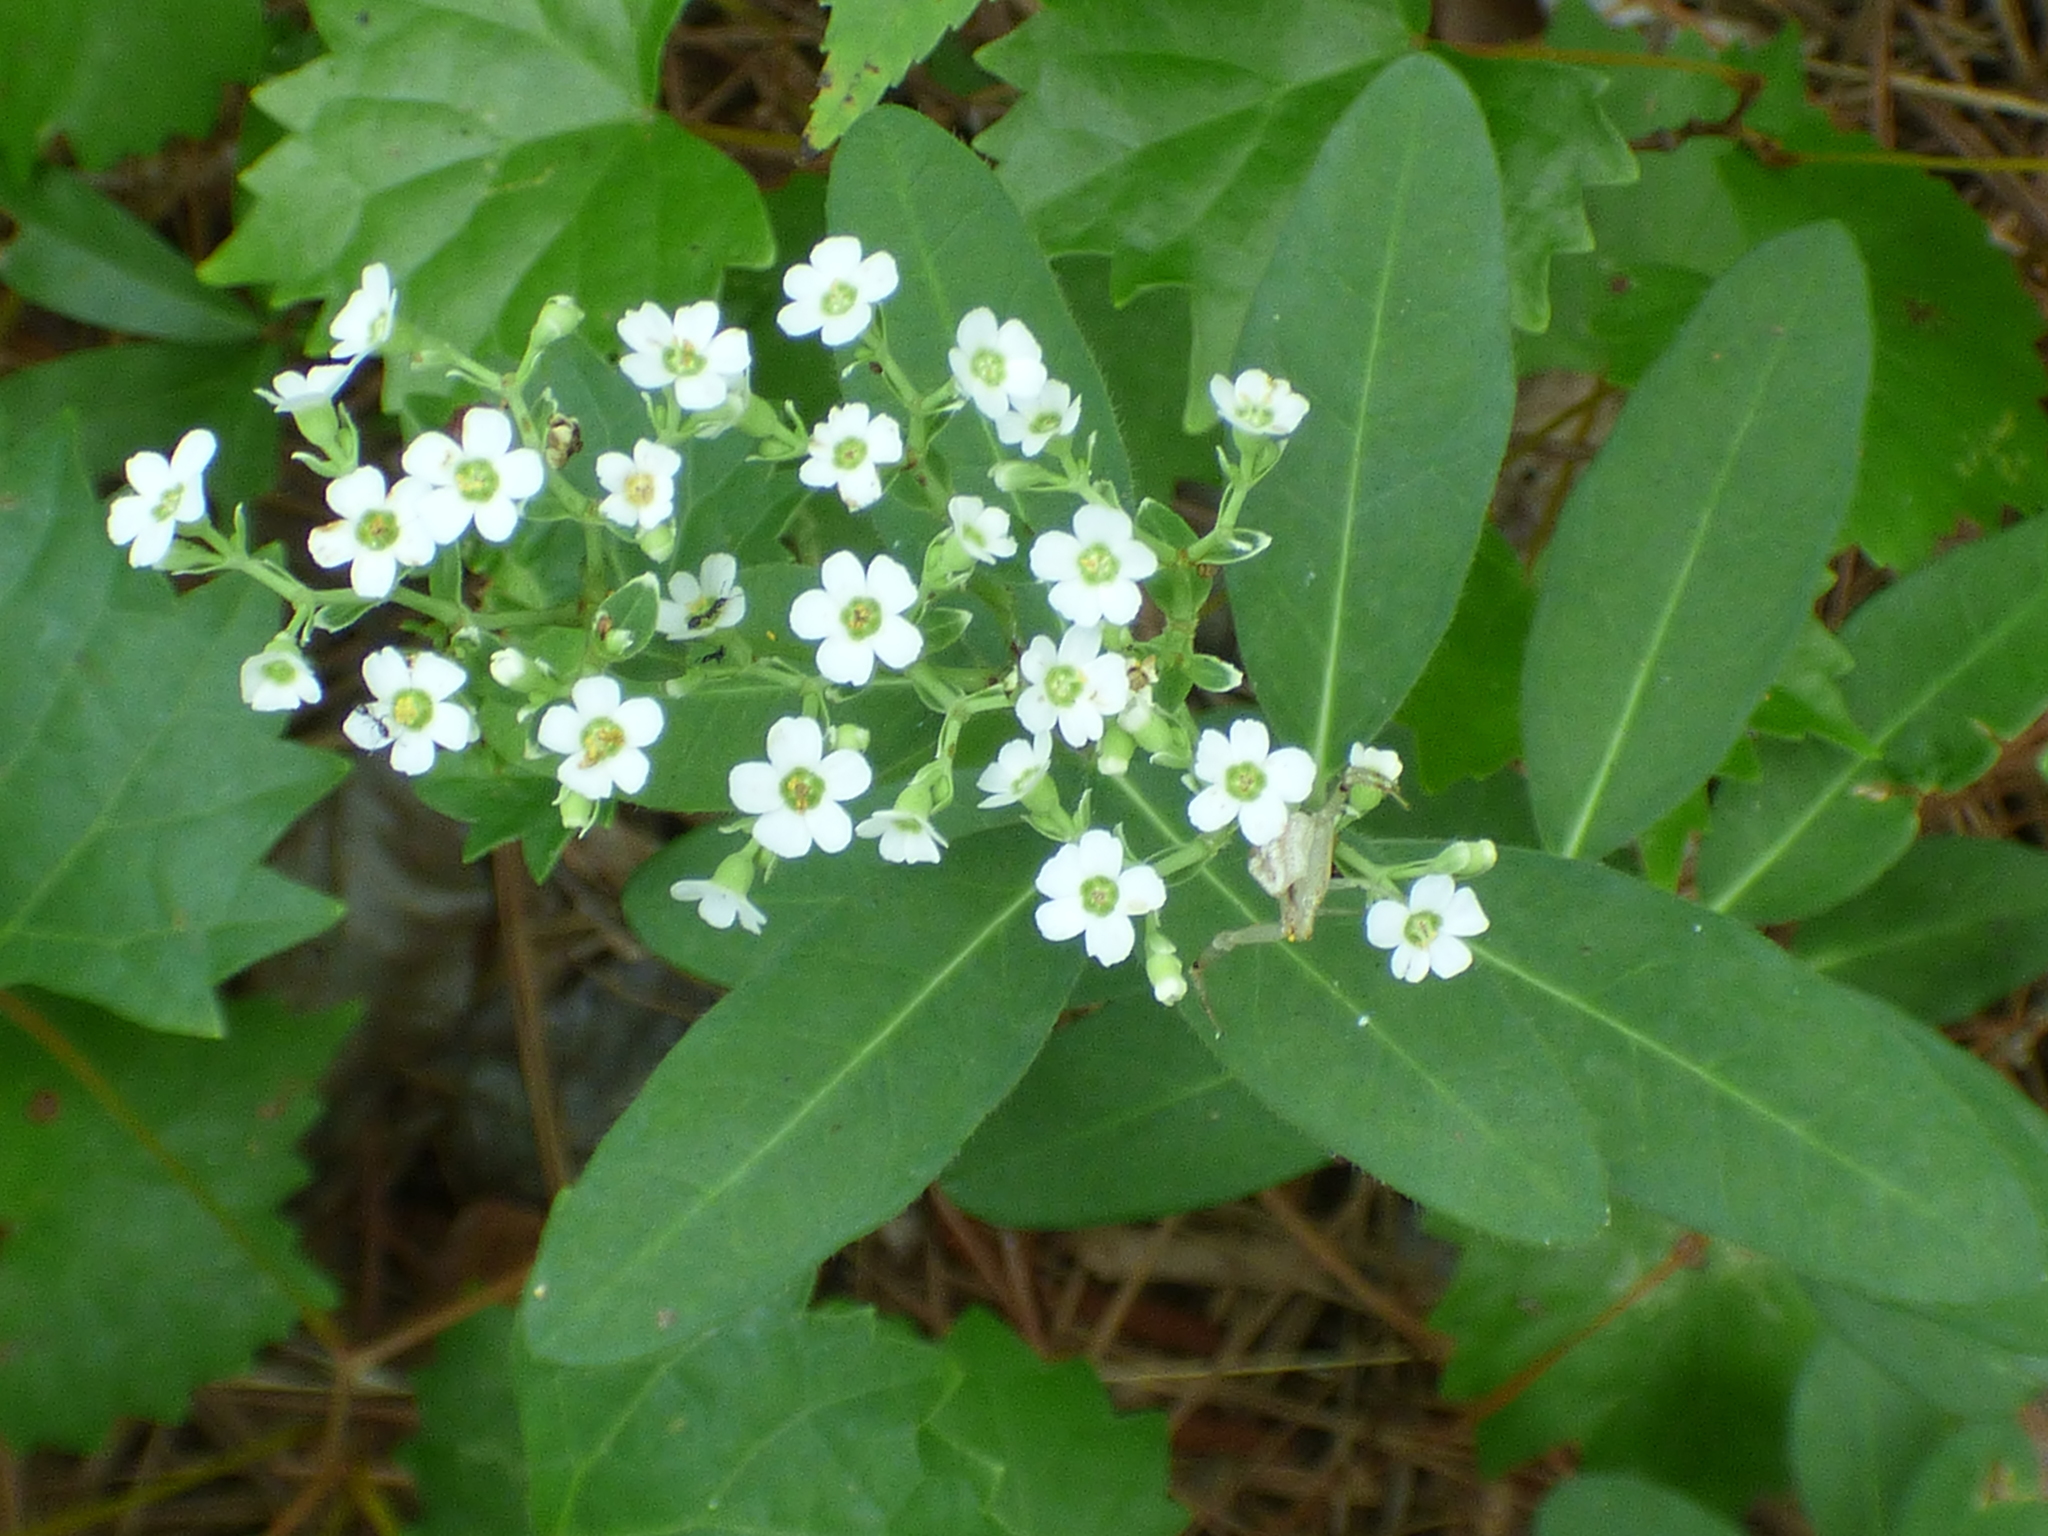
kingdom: Plantae
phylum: Tracheophyta
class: Magnoliopsida
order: Malpighiales
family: Euphorbiaceae
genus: Euphorbia
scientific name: Euphorbia corollata
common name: Flowering spurge
